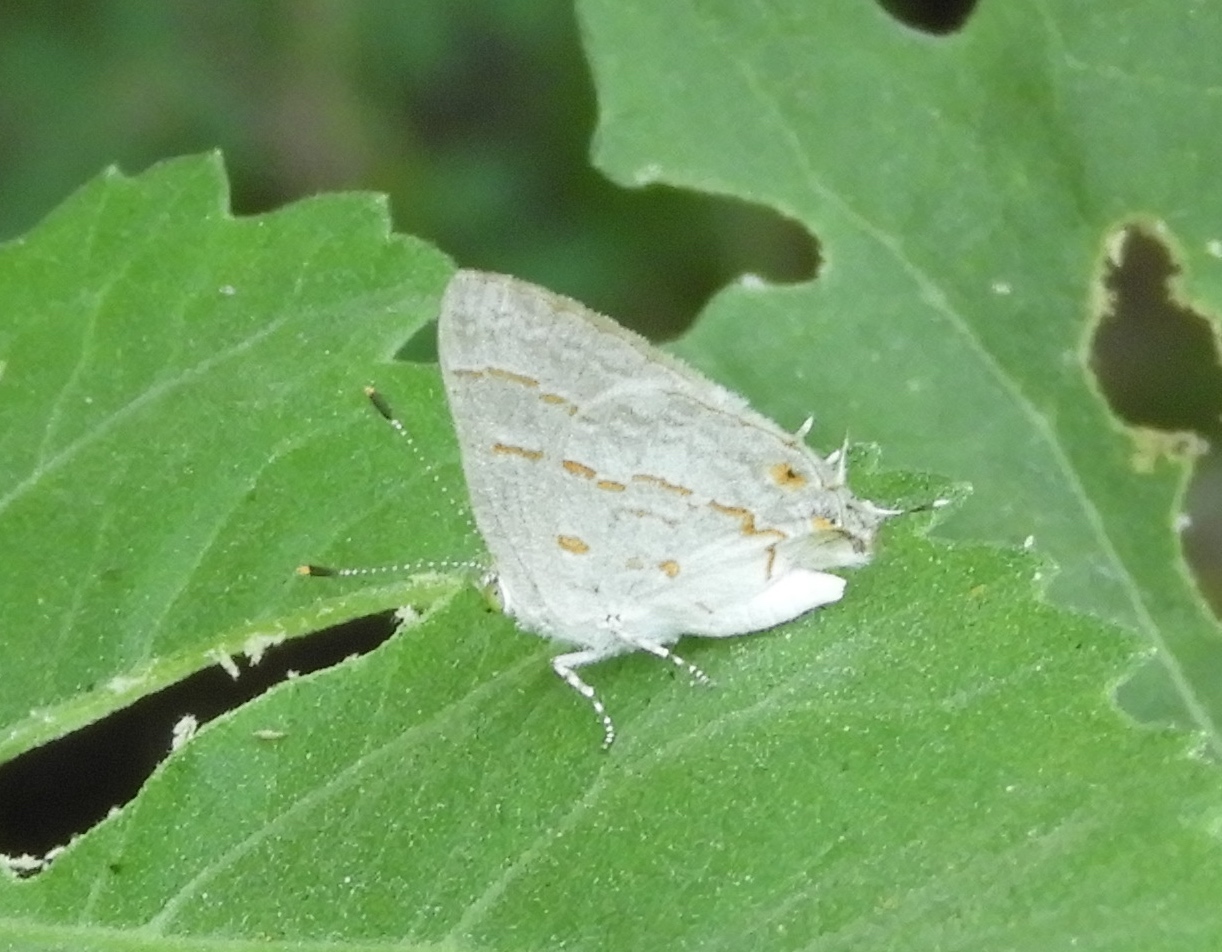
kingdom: Animalia
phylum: Arthropoda
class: Insecta
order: Lepidoptera
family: Lycaenidae
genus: Ministrymon
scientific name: Ministrymon
